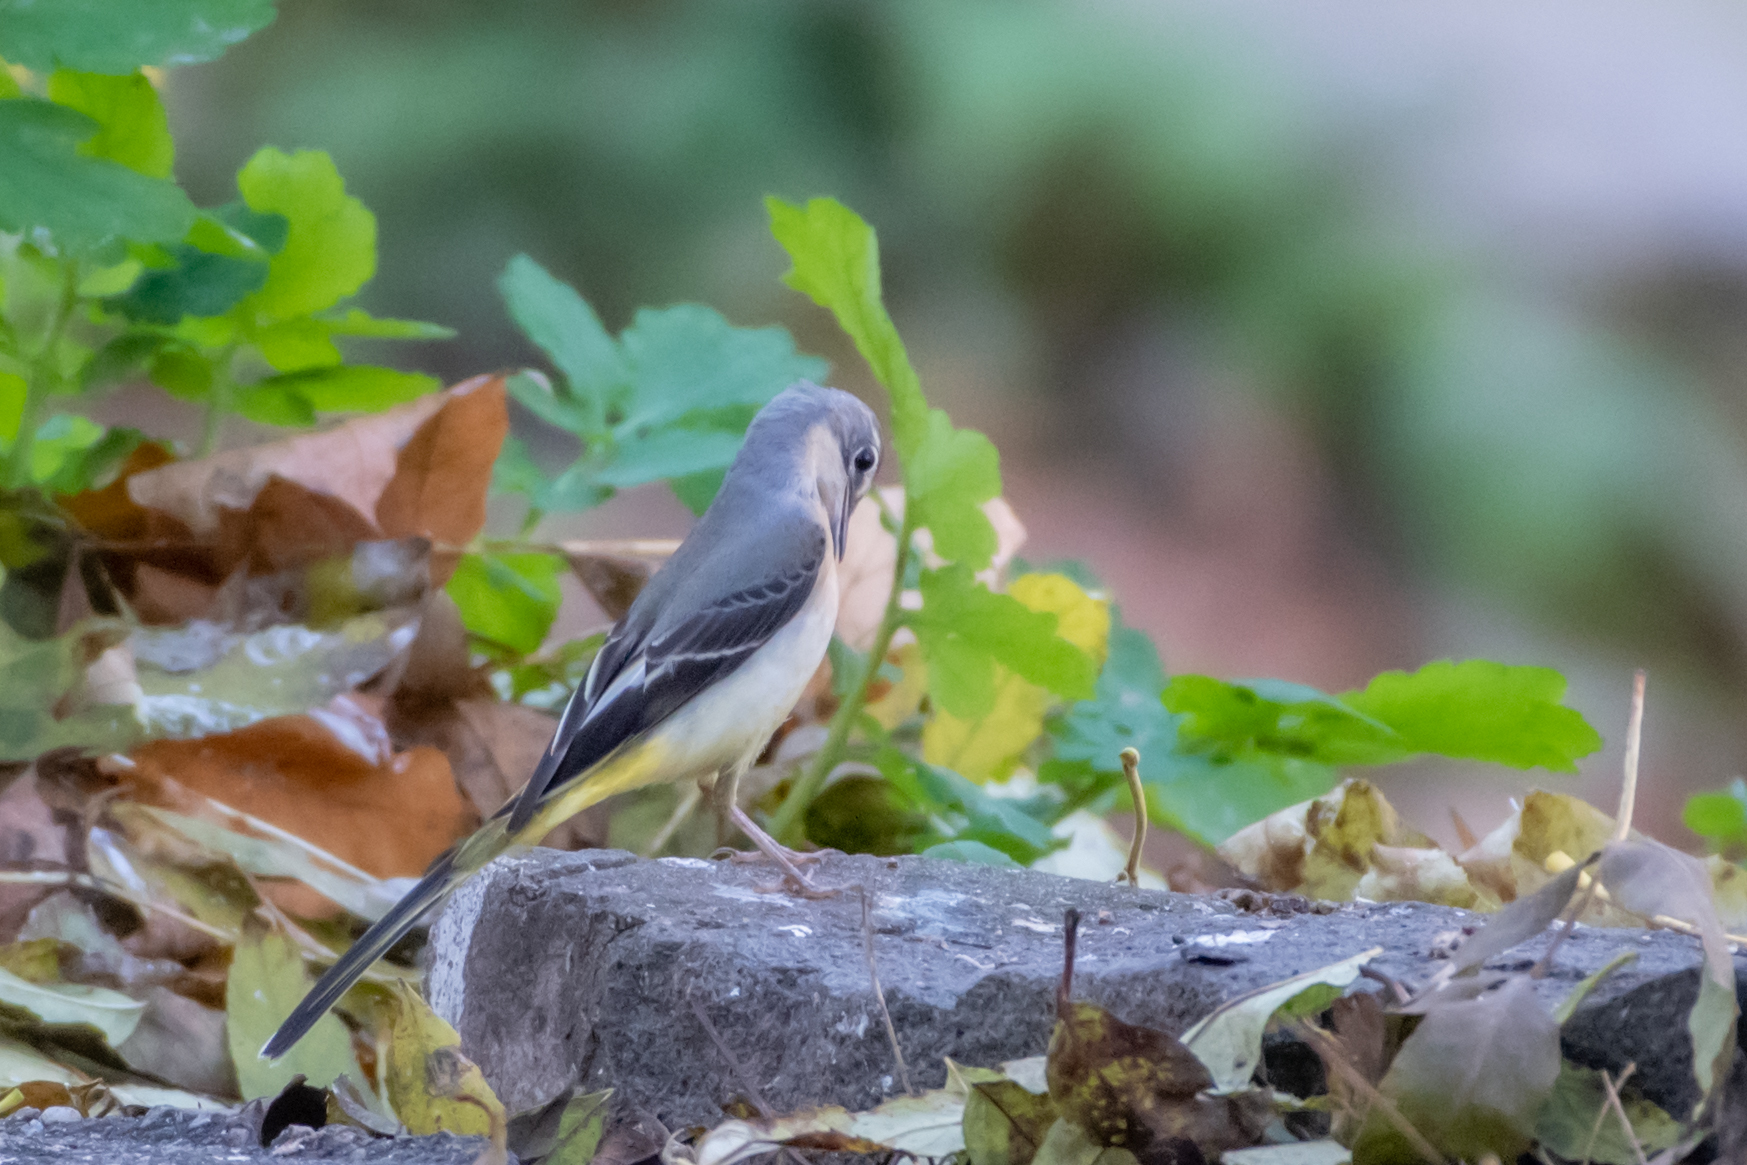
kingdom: Animalia
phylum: Chordata
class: Aves
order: Passeriformes
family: Motacillidae
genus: Motacilla
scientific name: Motacilla cinerea
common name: Grey wagtail
